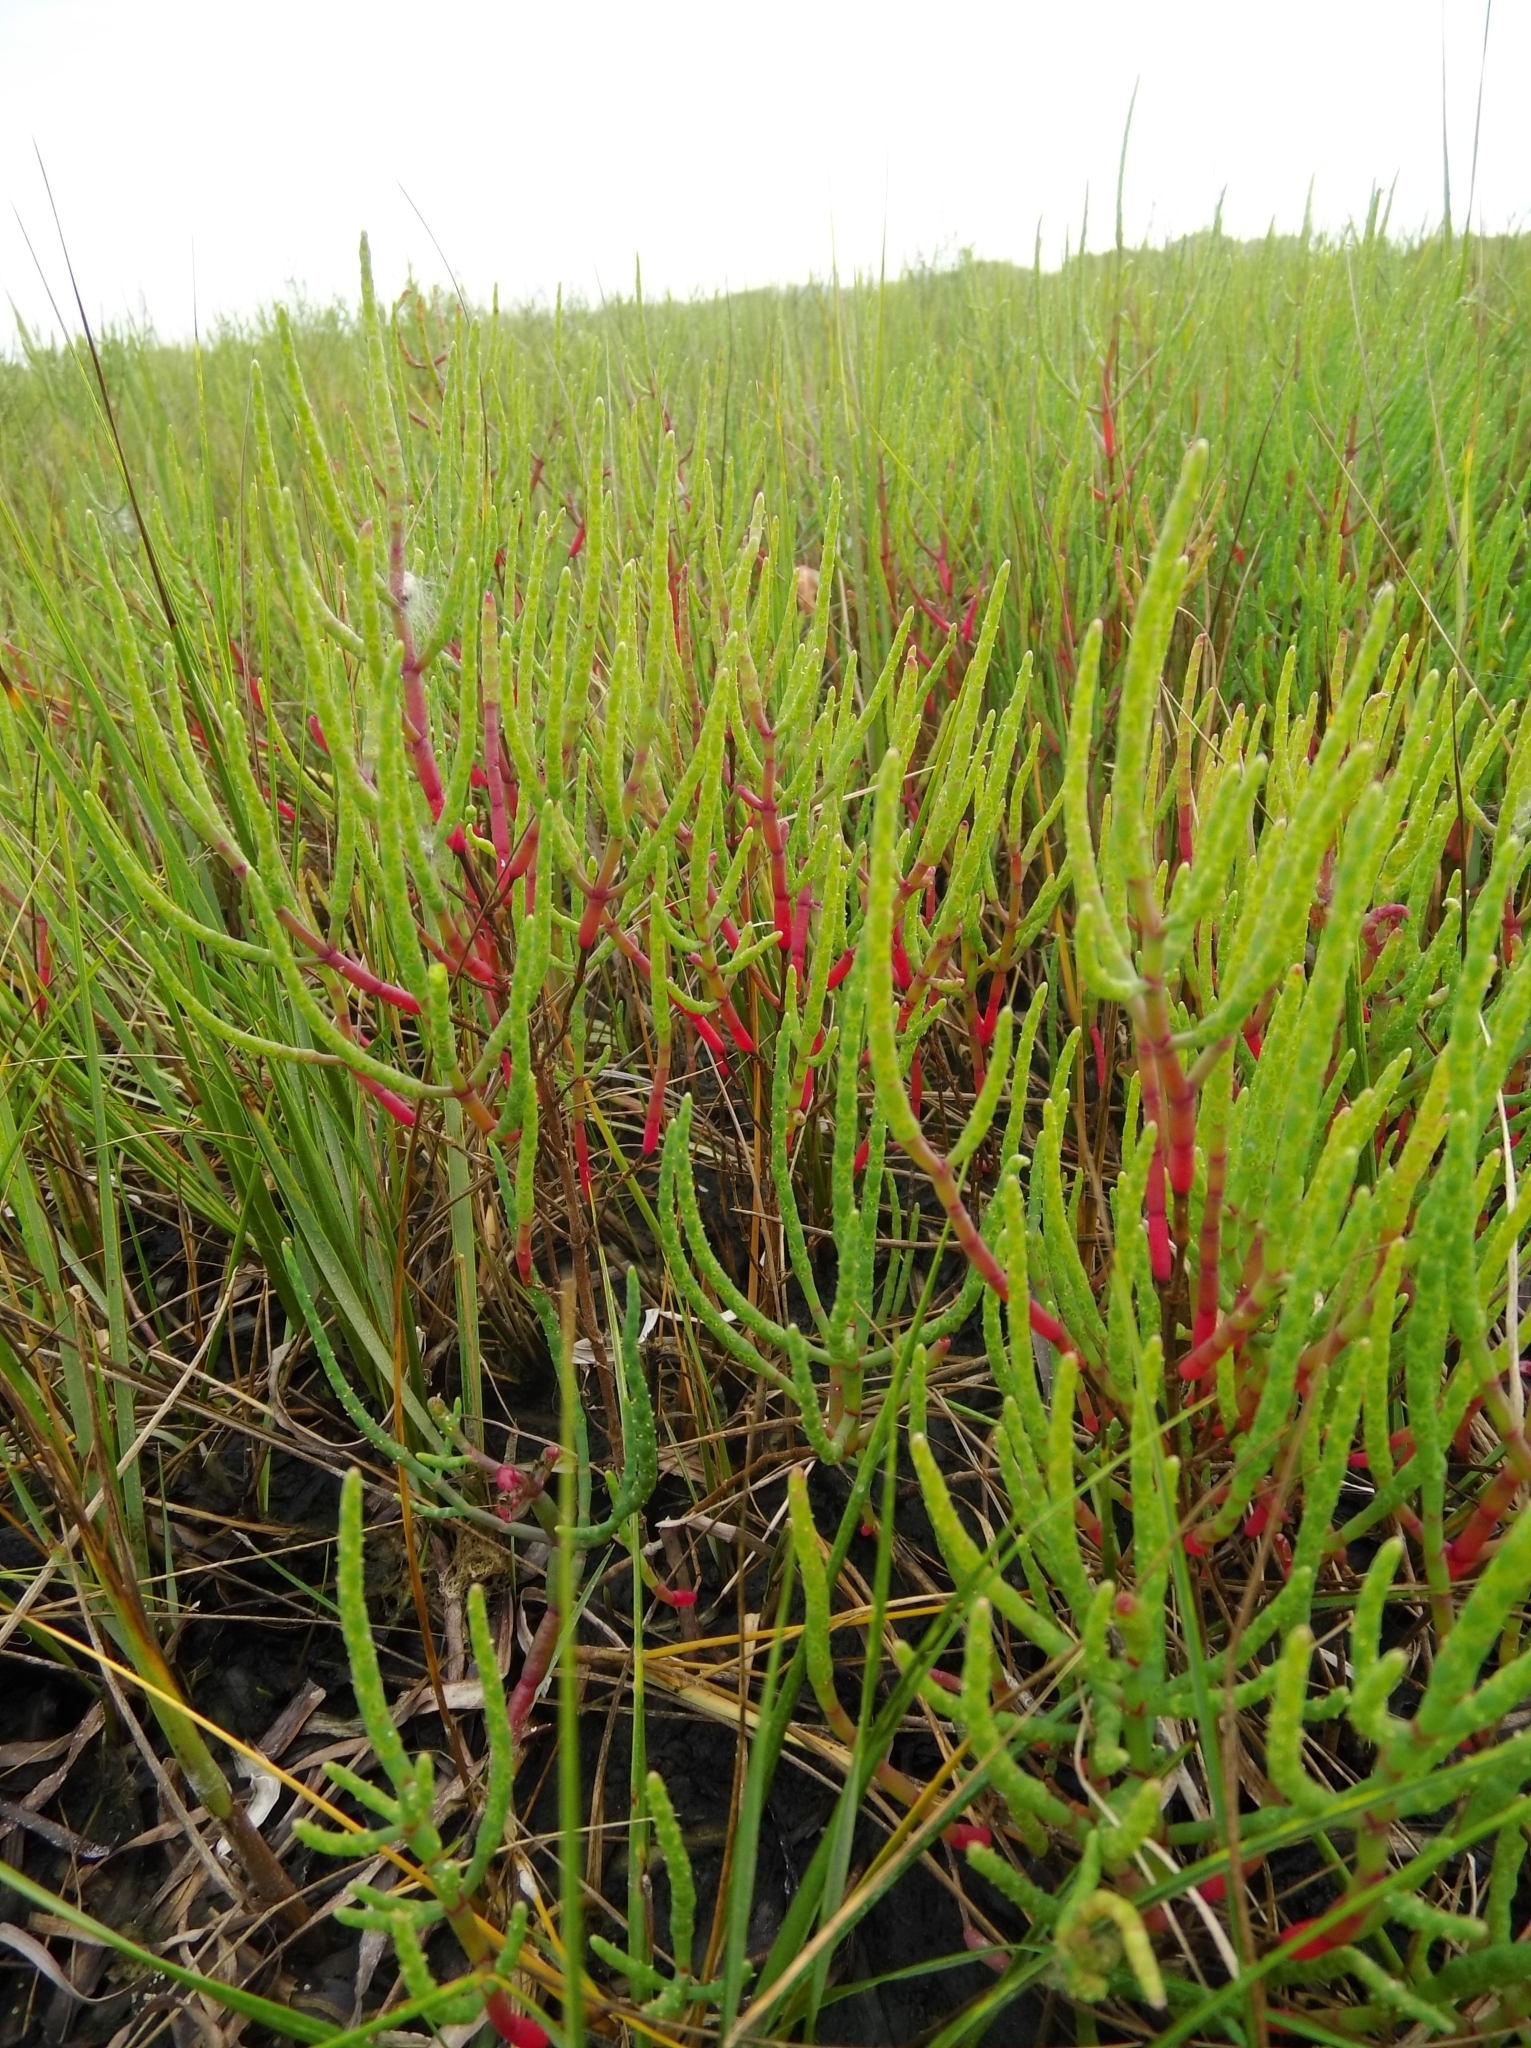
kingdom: Plantae
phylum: Tracheophyta
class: Magnoliopsida
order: Caryophyllales
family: Amaranthaceae
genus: Salicornia
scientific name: Salicornia virginica
